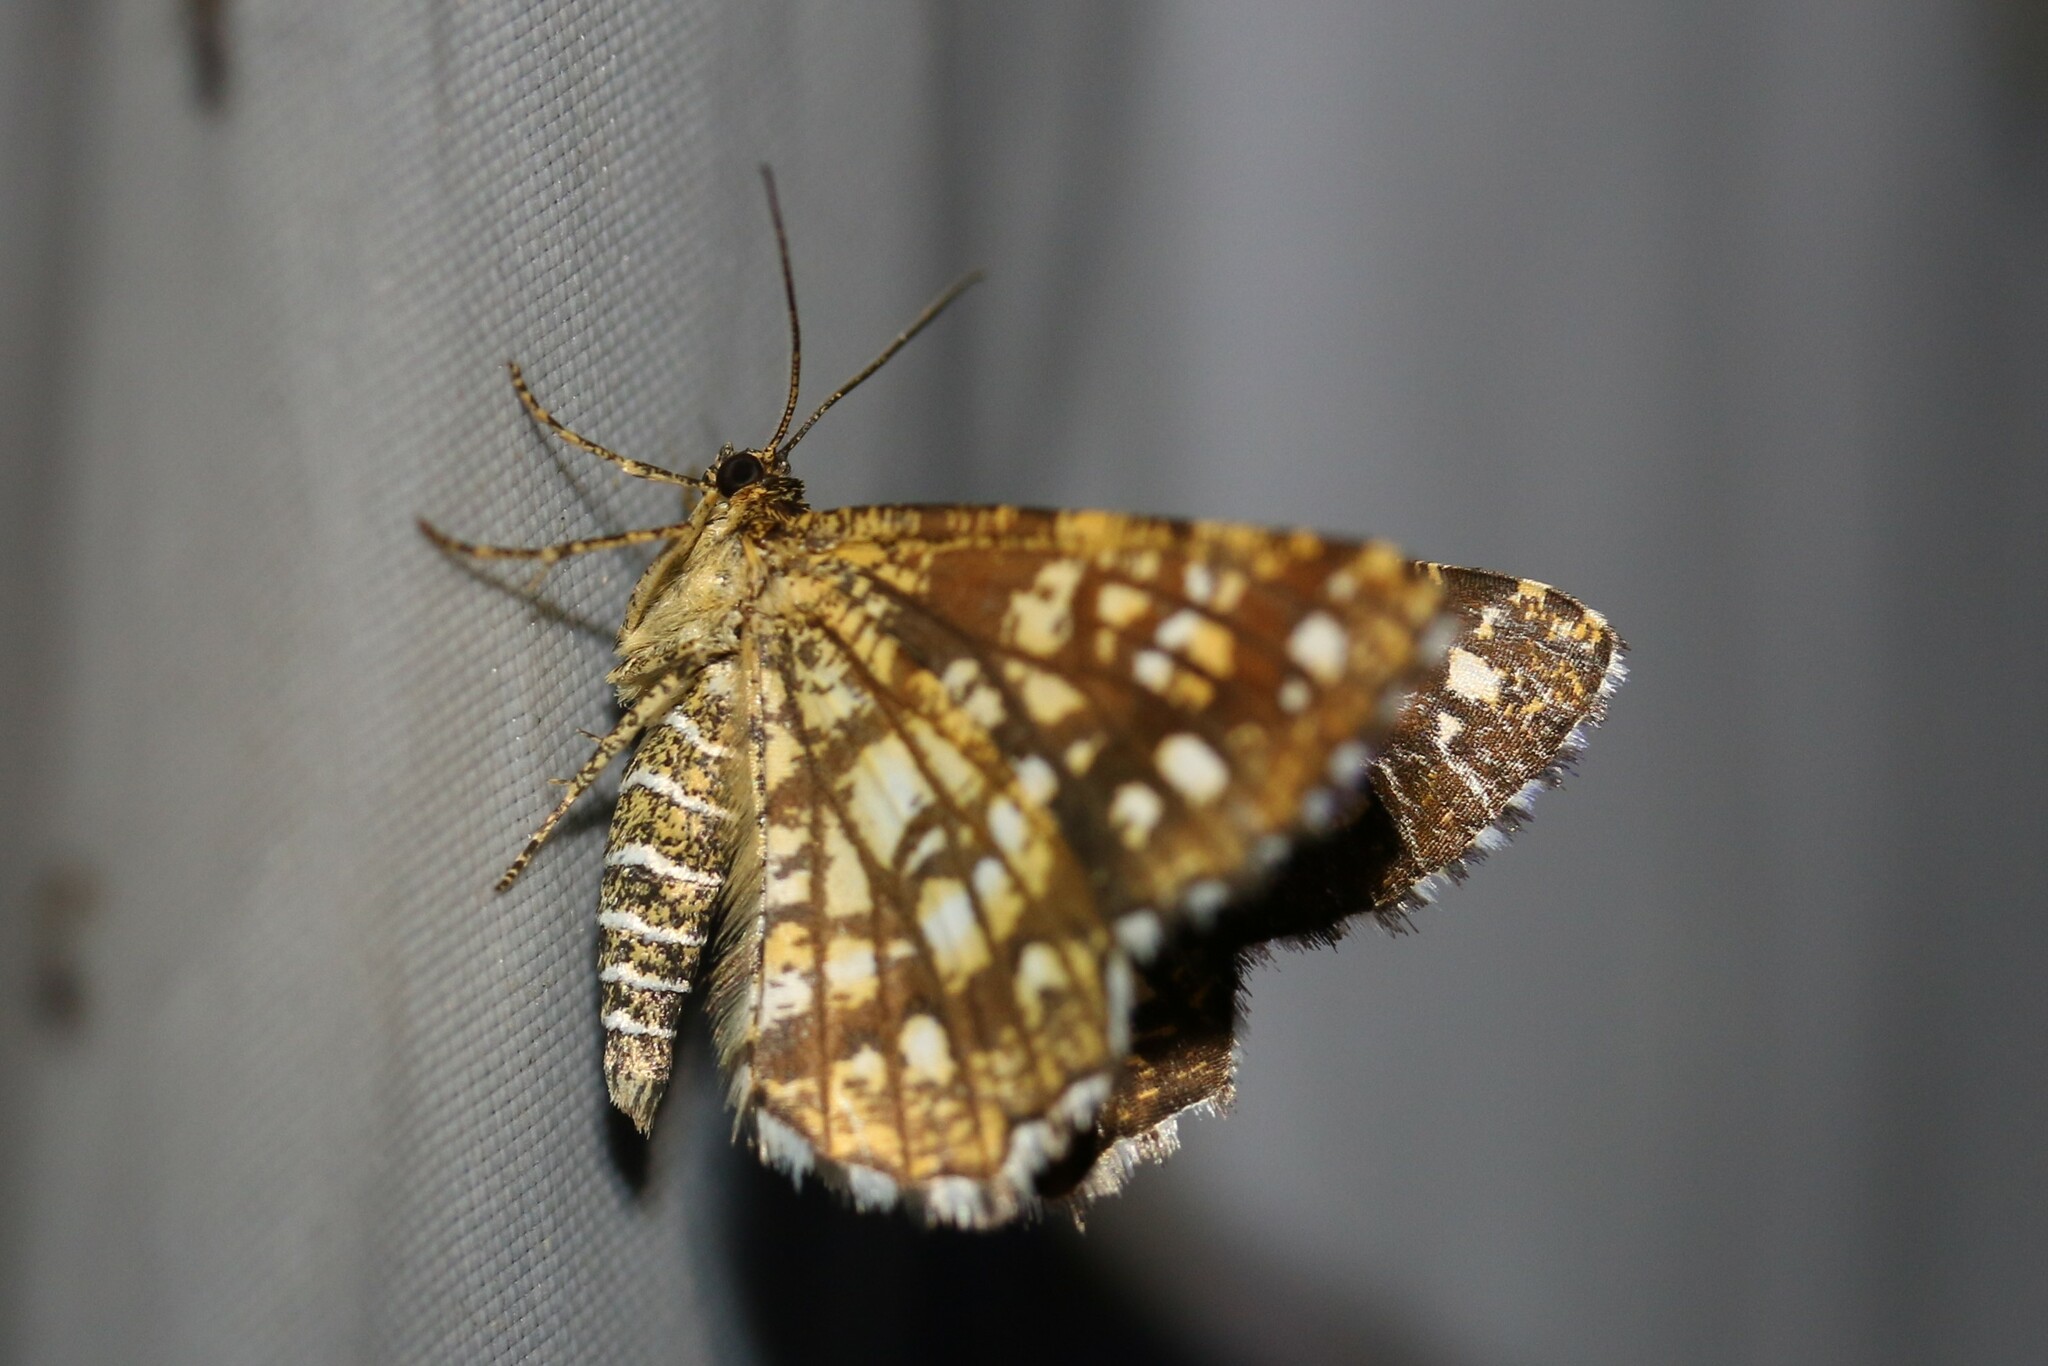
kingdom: Animalia
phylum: Arthropoda
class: Insecta
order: Lepidoptera
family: Geometridae
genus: Chiasmia
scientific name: Chiasmia clathrata
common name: Latticed heath
